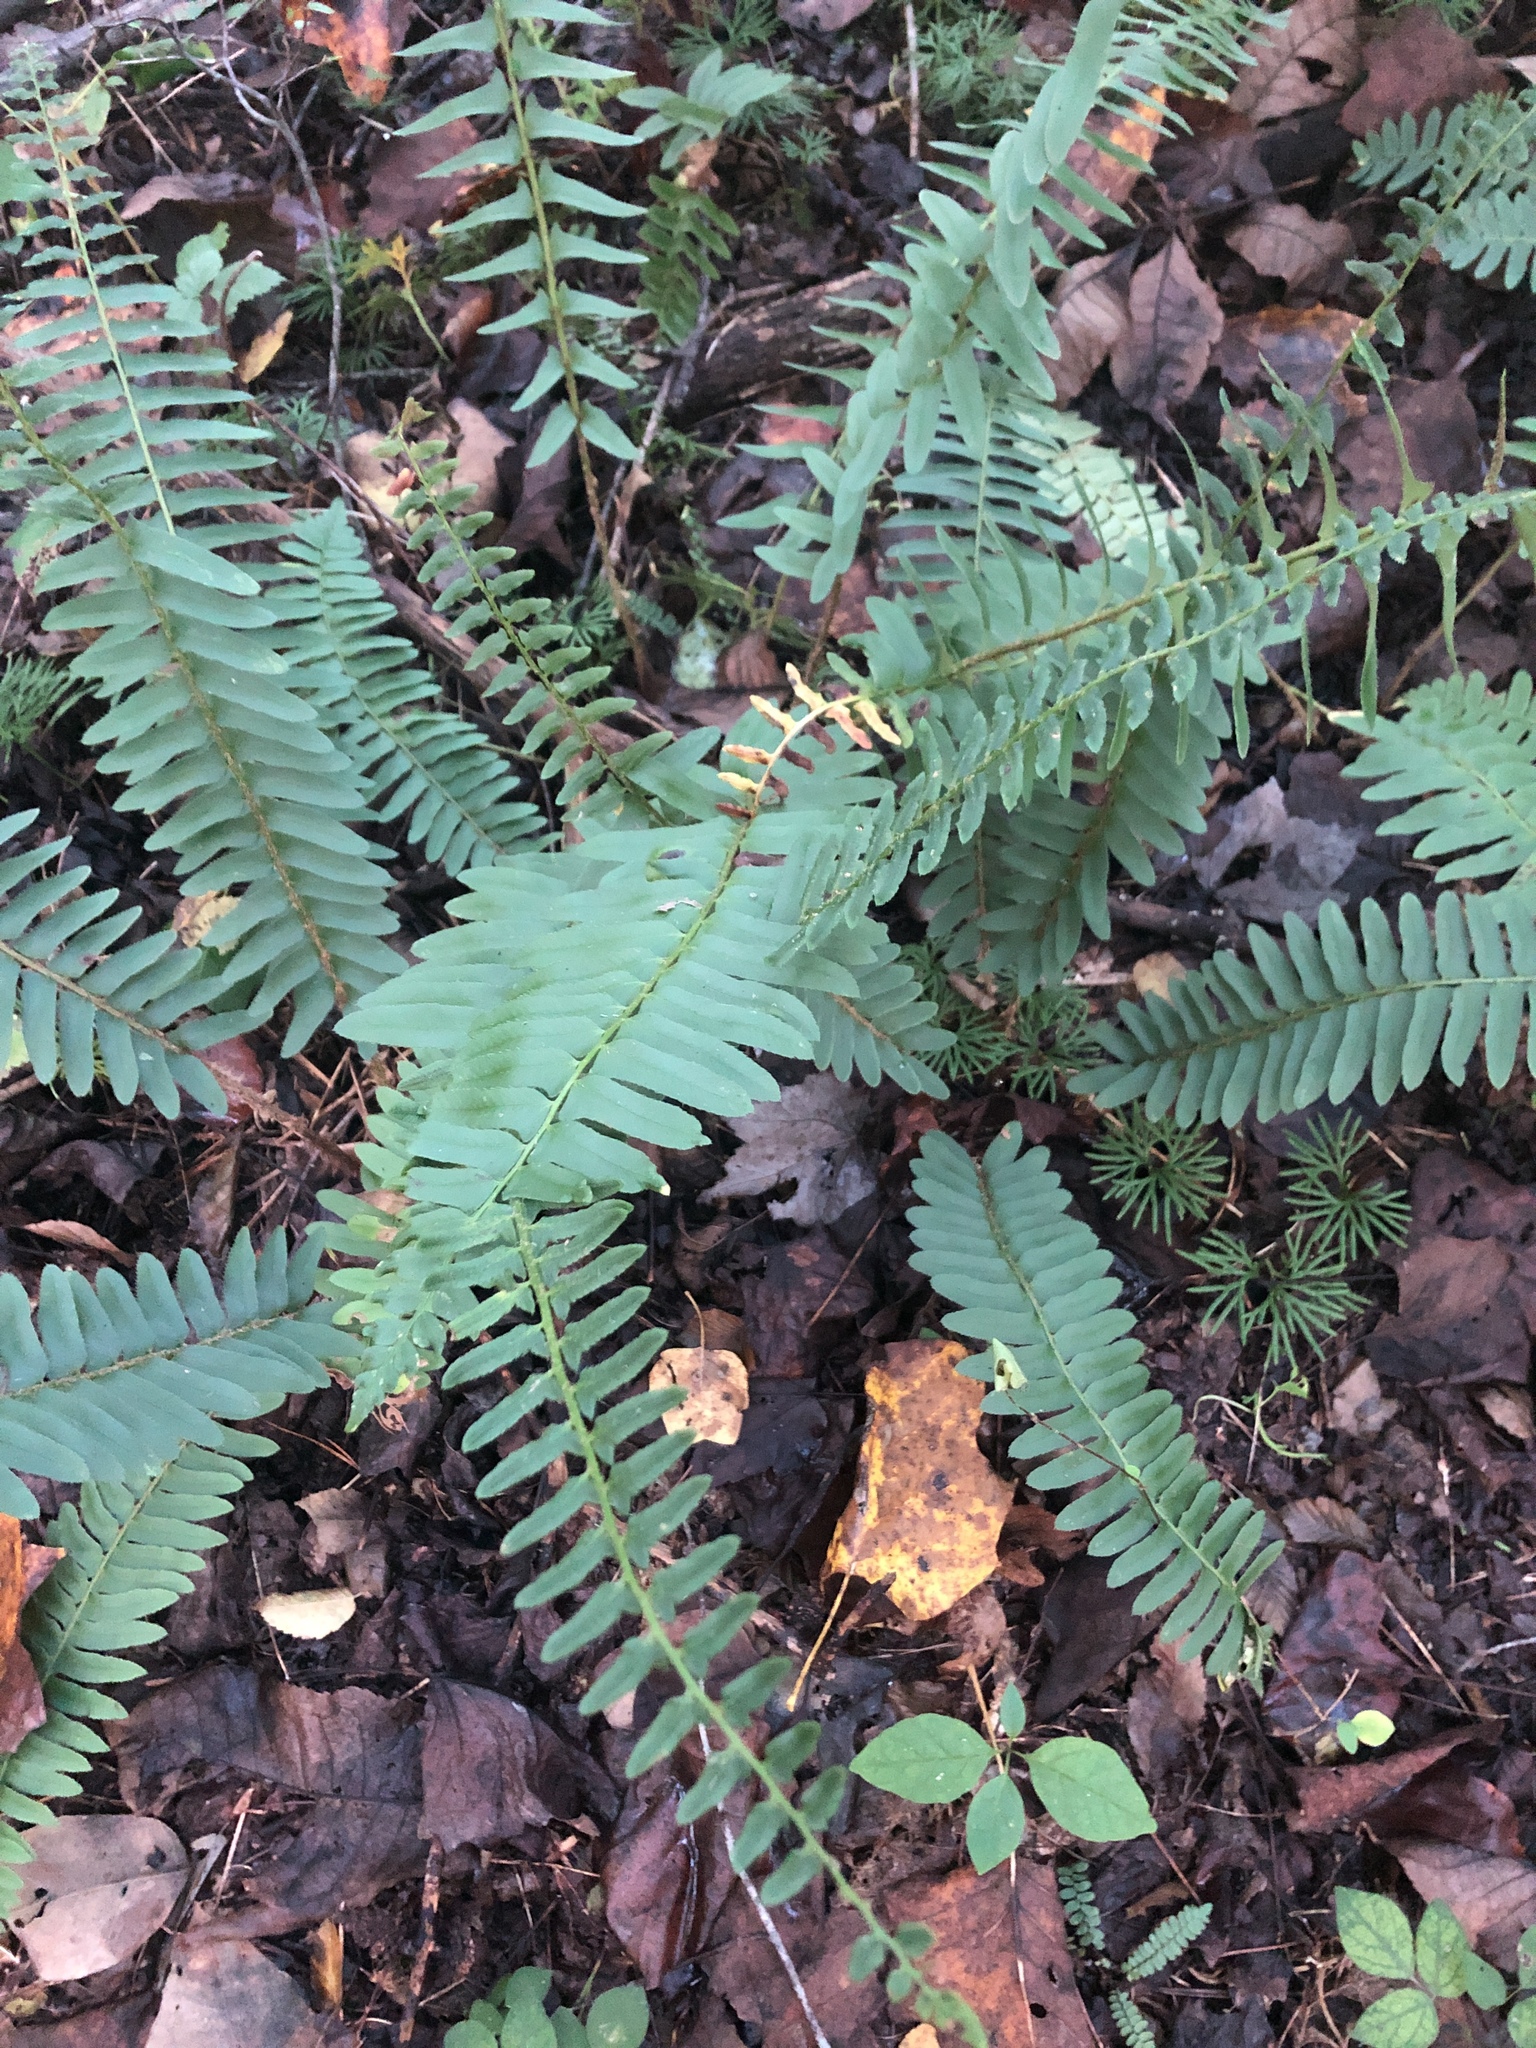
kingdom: Plantae
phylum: Tracheophyta
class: Polypodiopsida
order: Polypodiales
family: Dryopteridaceae
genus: Polystichum
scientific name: Polystichum acrostichoides
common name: Christmas fern
